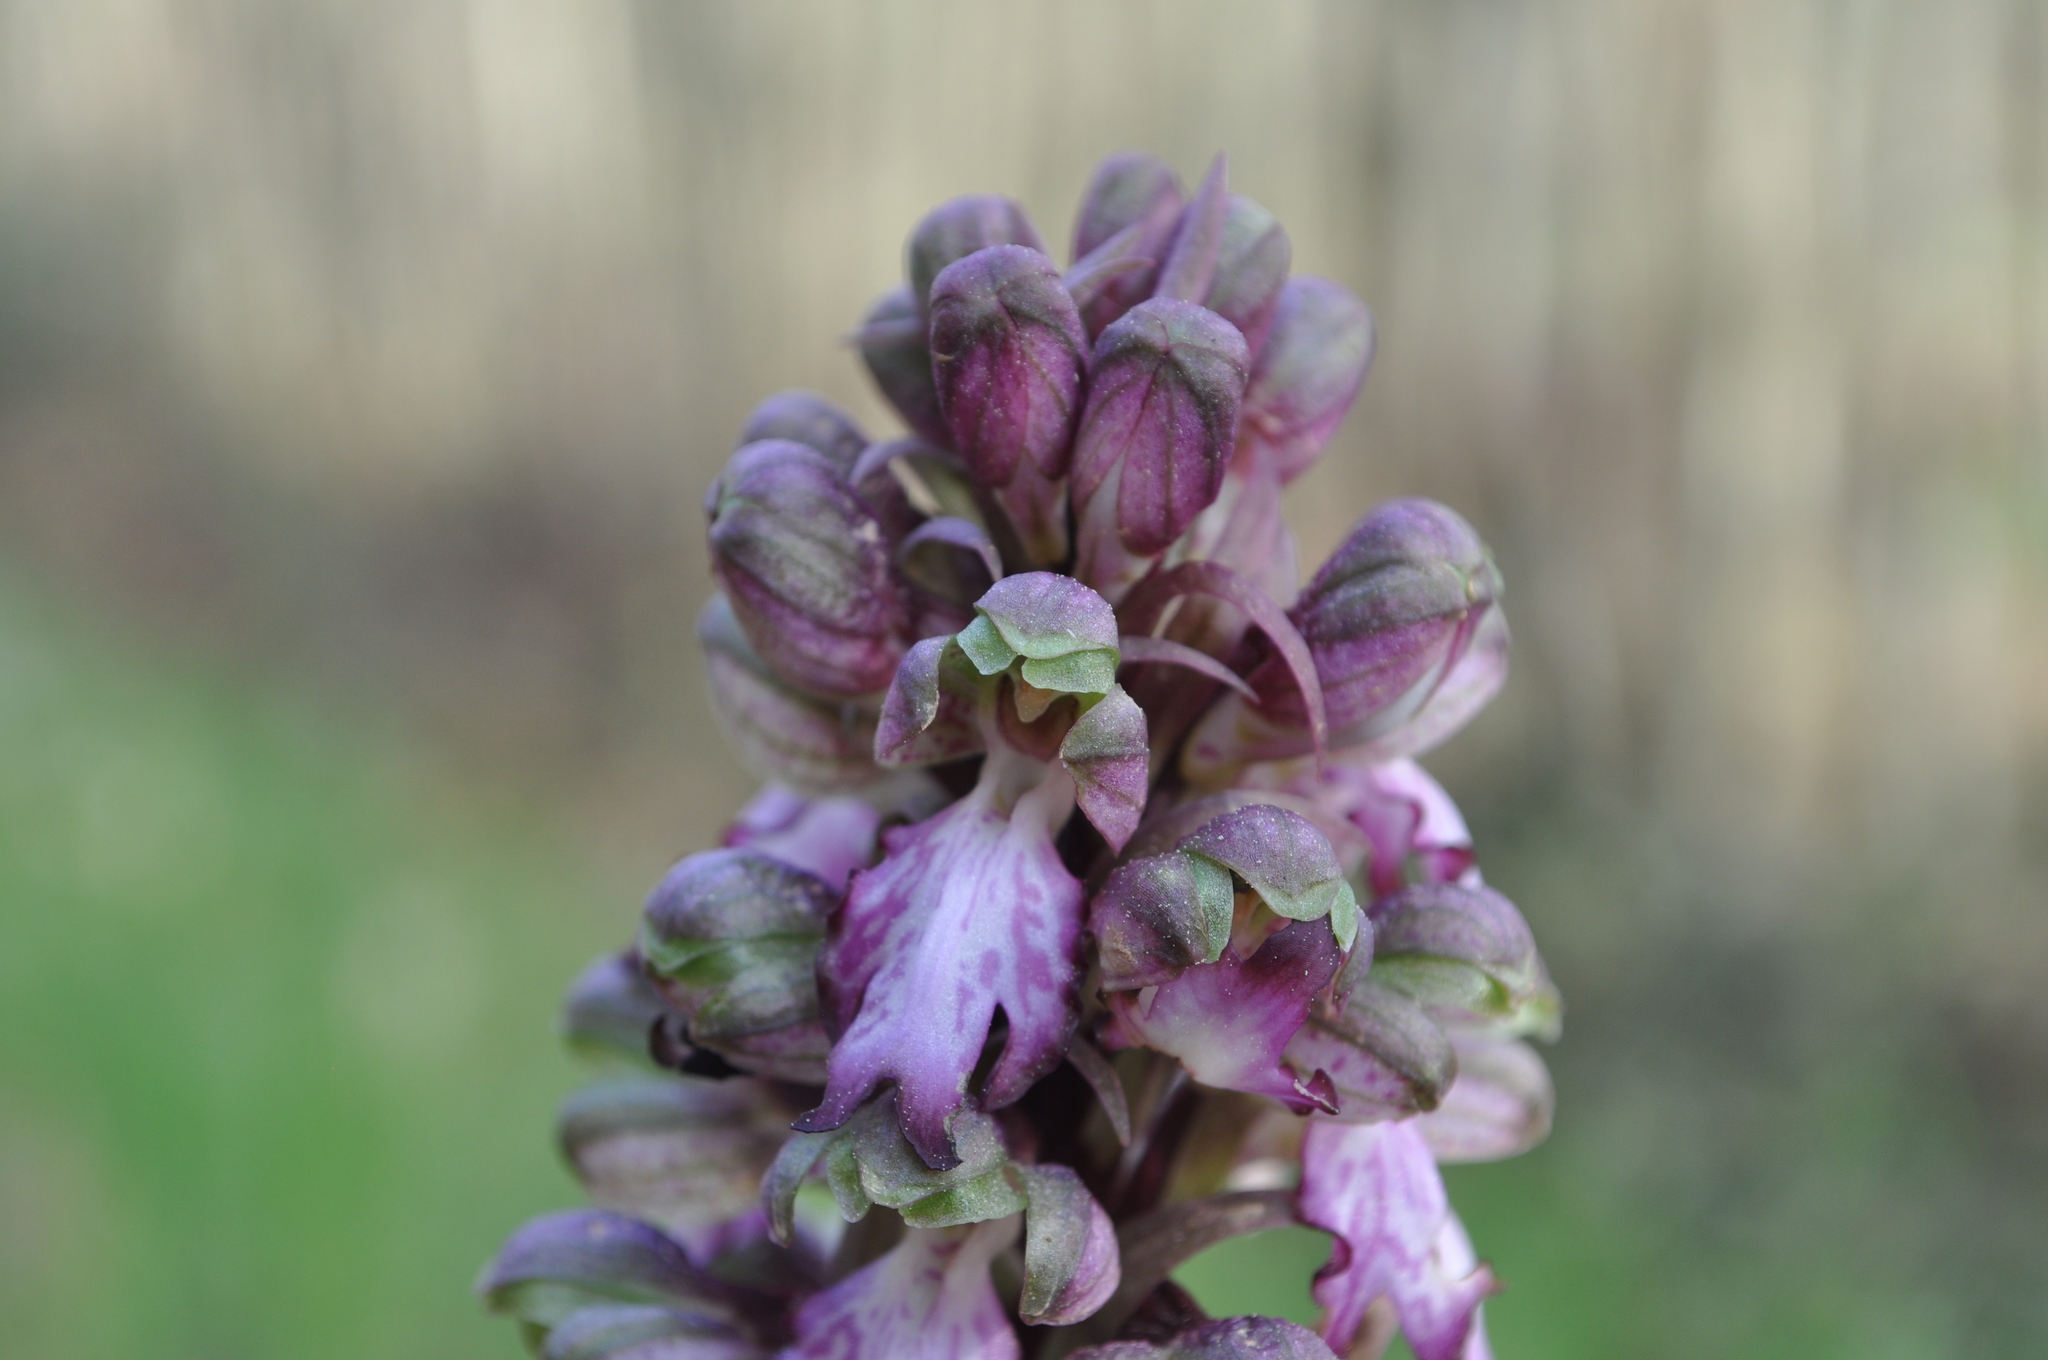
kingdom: Plantae
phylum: Tracheophyta
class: Liliopsida
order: Asparagales
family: Orchidaceae
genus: Himantoglossum
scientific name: Himantoglossum robertianum
